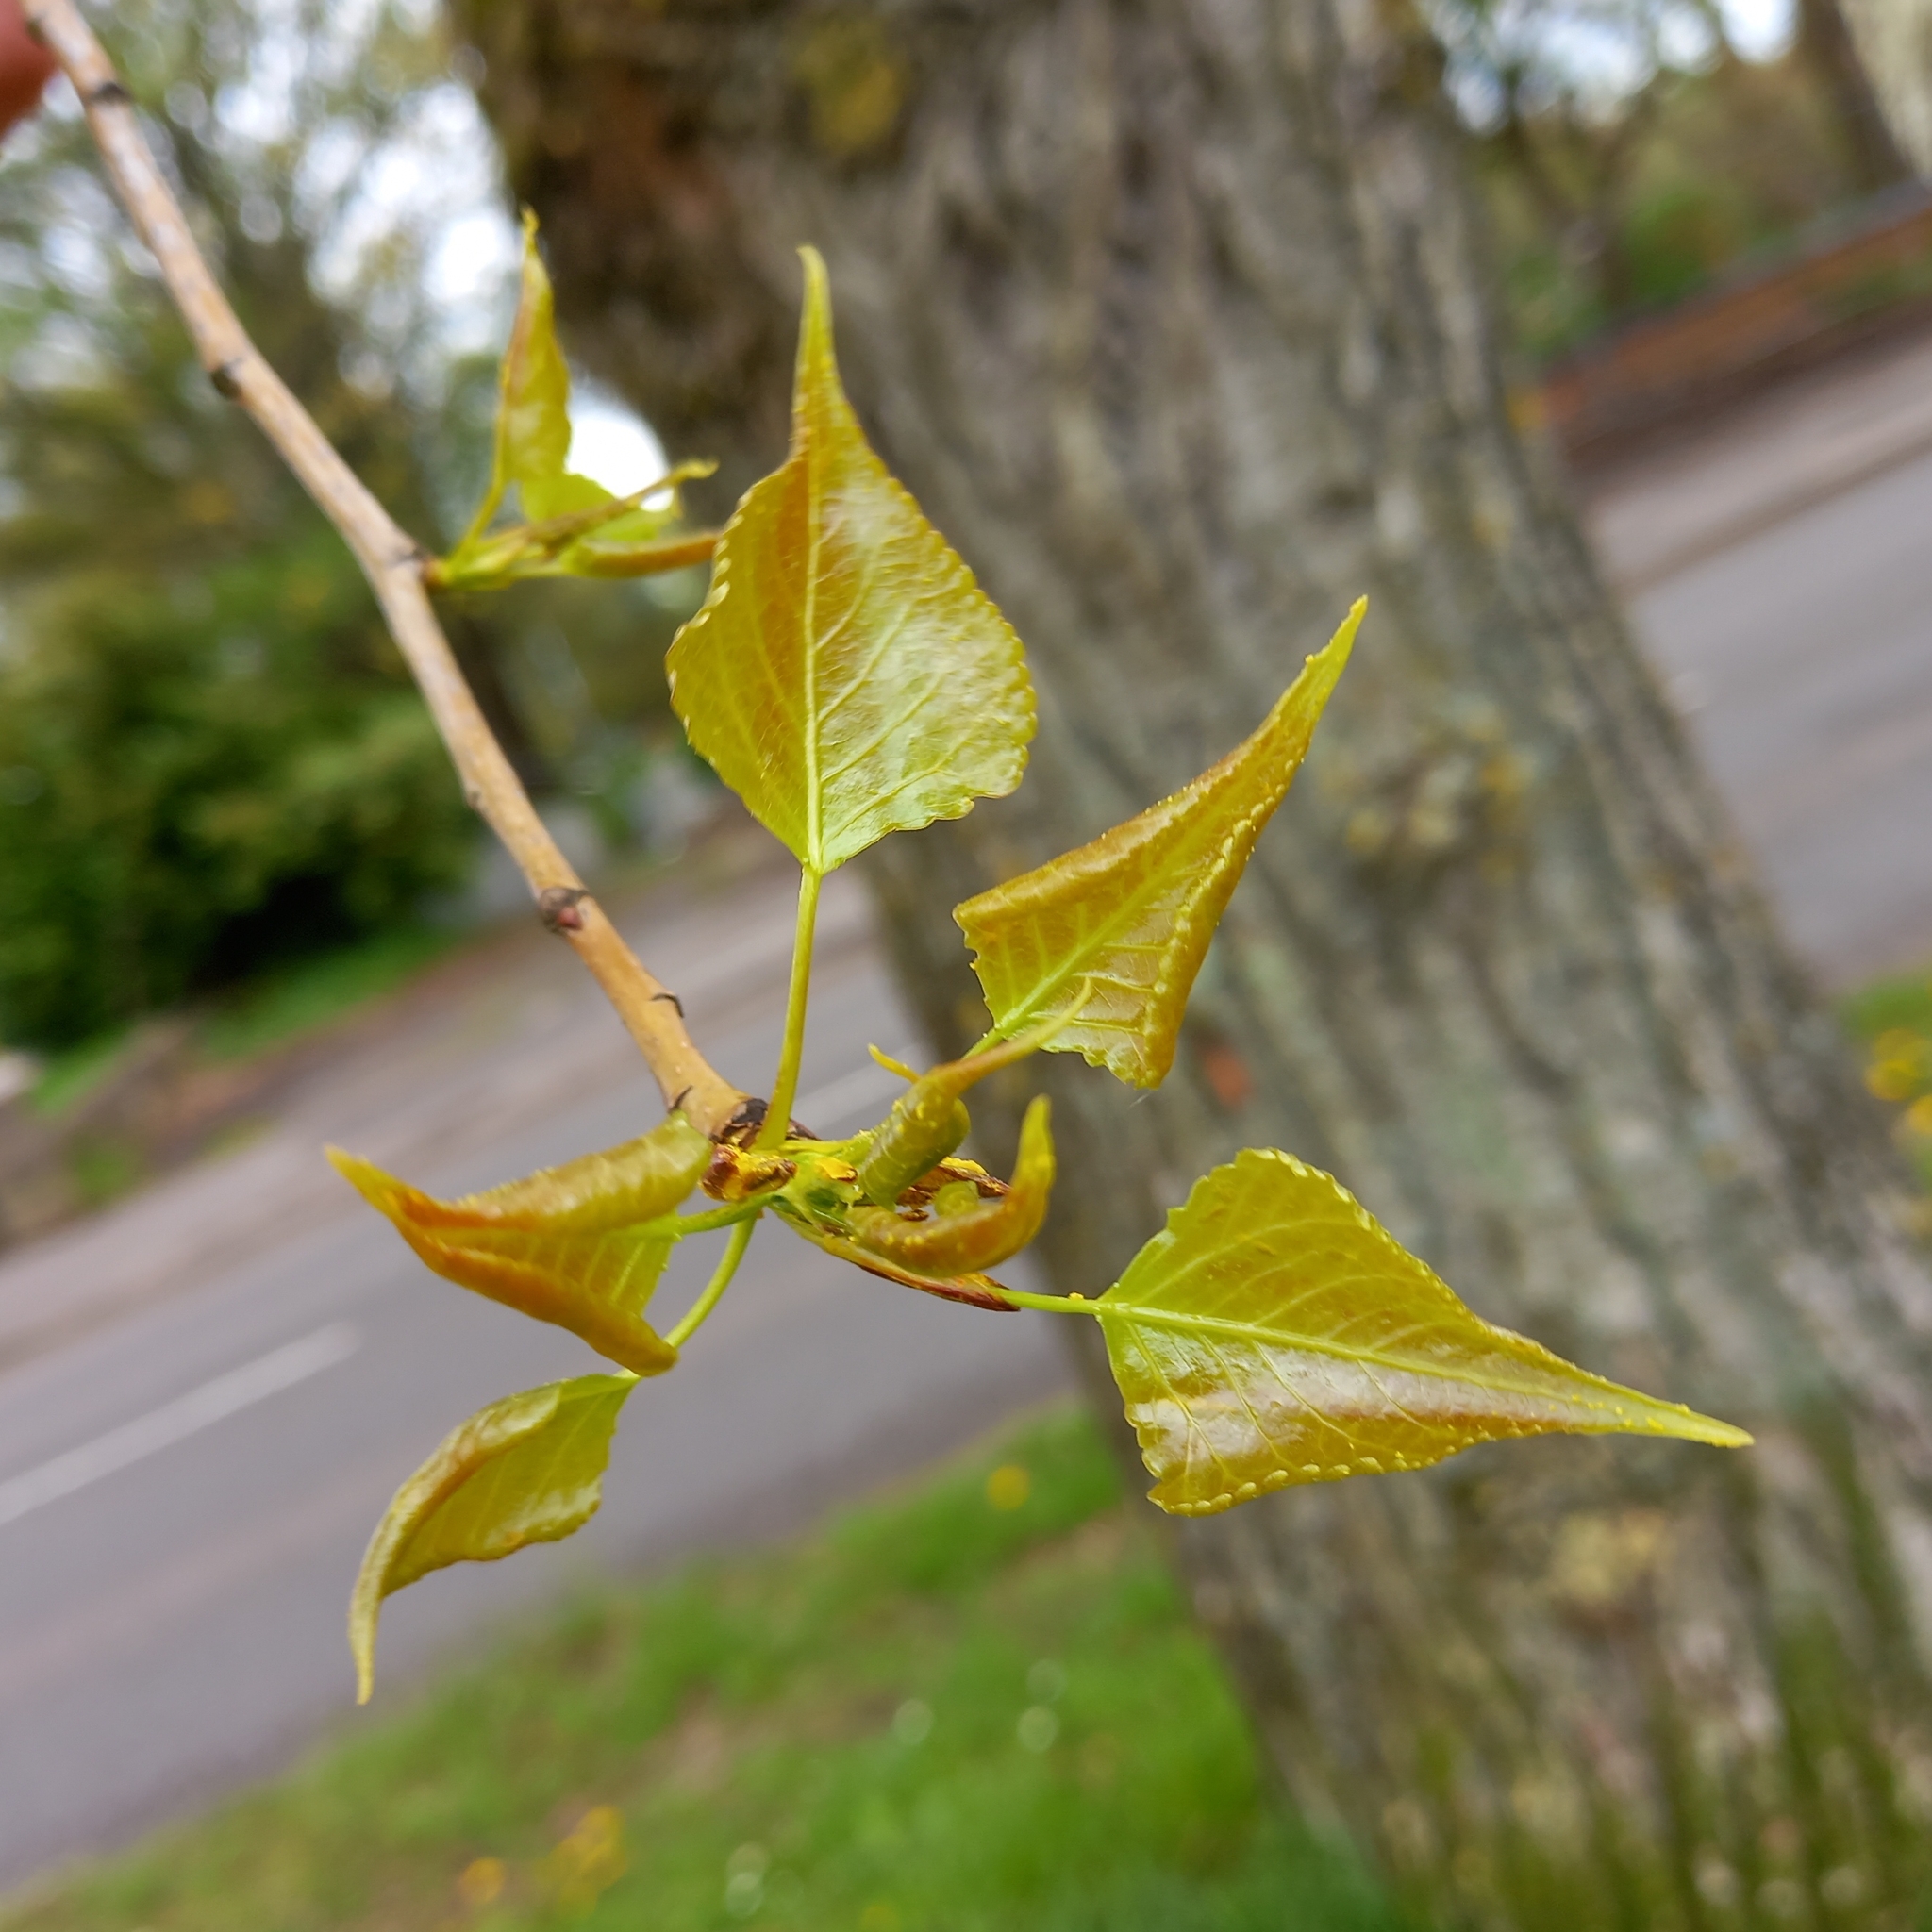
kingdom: Plantae
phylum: Tracheophyta
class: Magnoliopsida
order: Malpighiales
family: Salicaceae
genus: Populus
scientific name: Populus canadensis
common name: Carolina poplar
